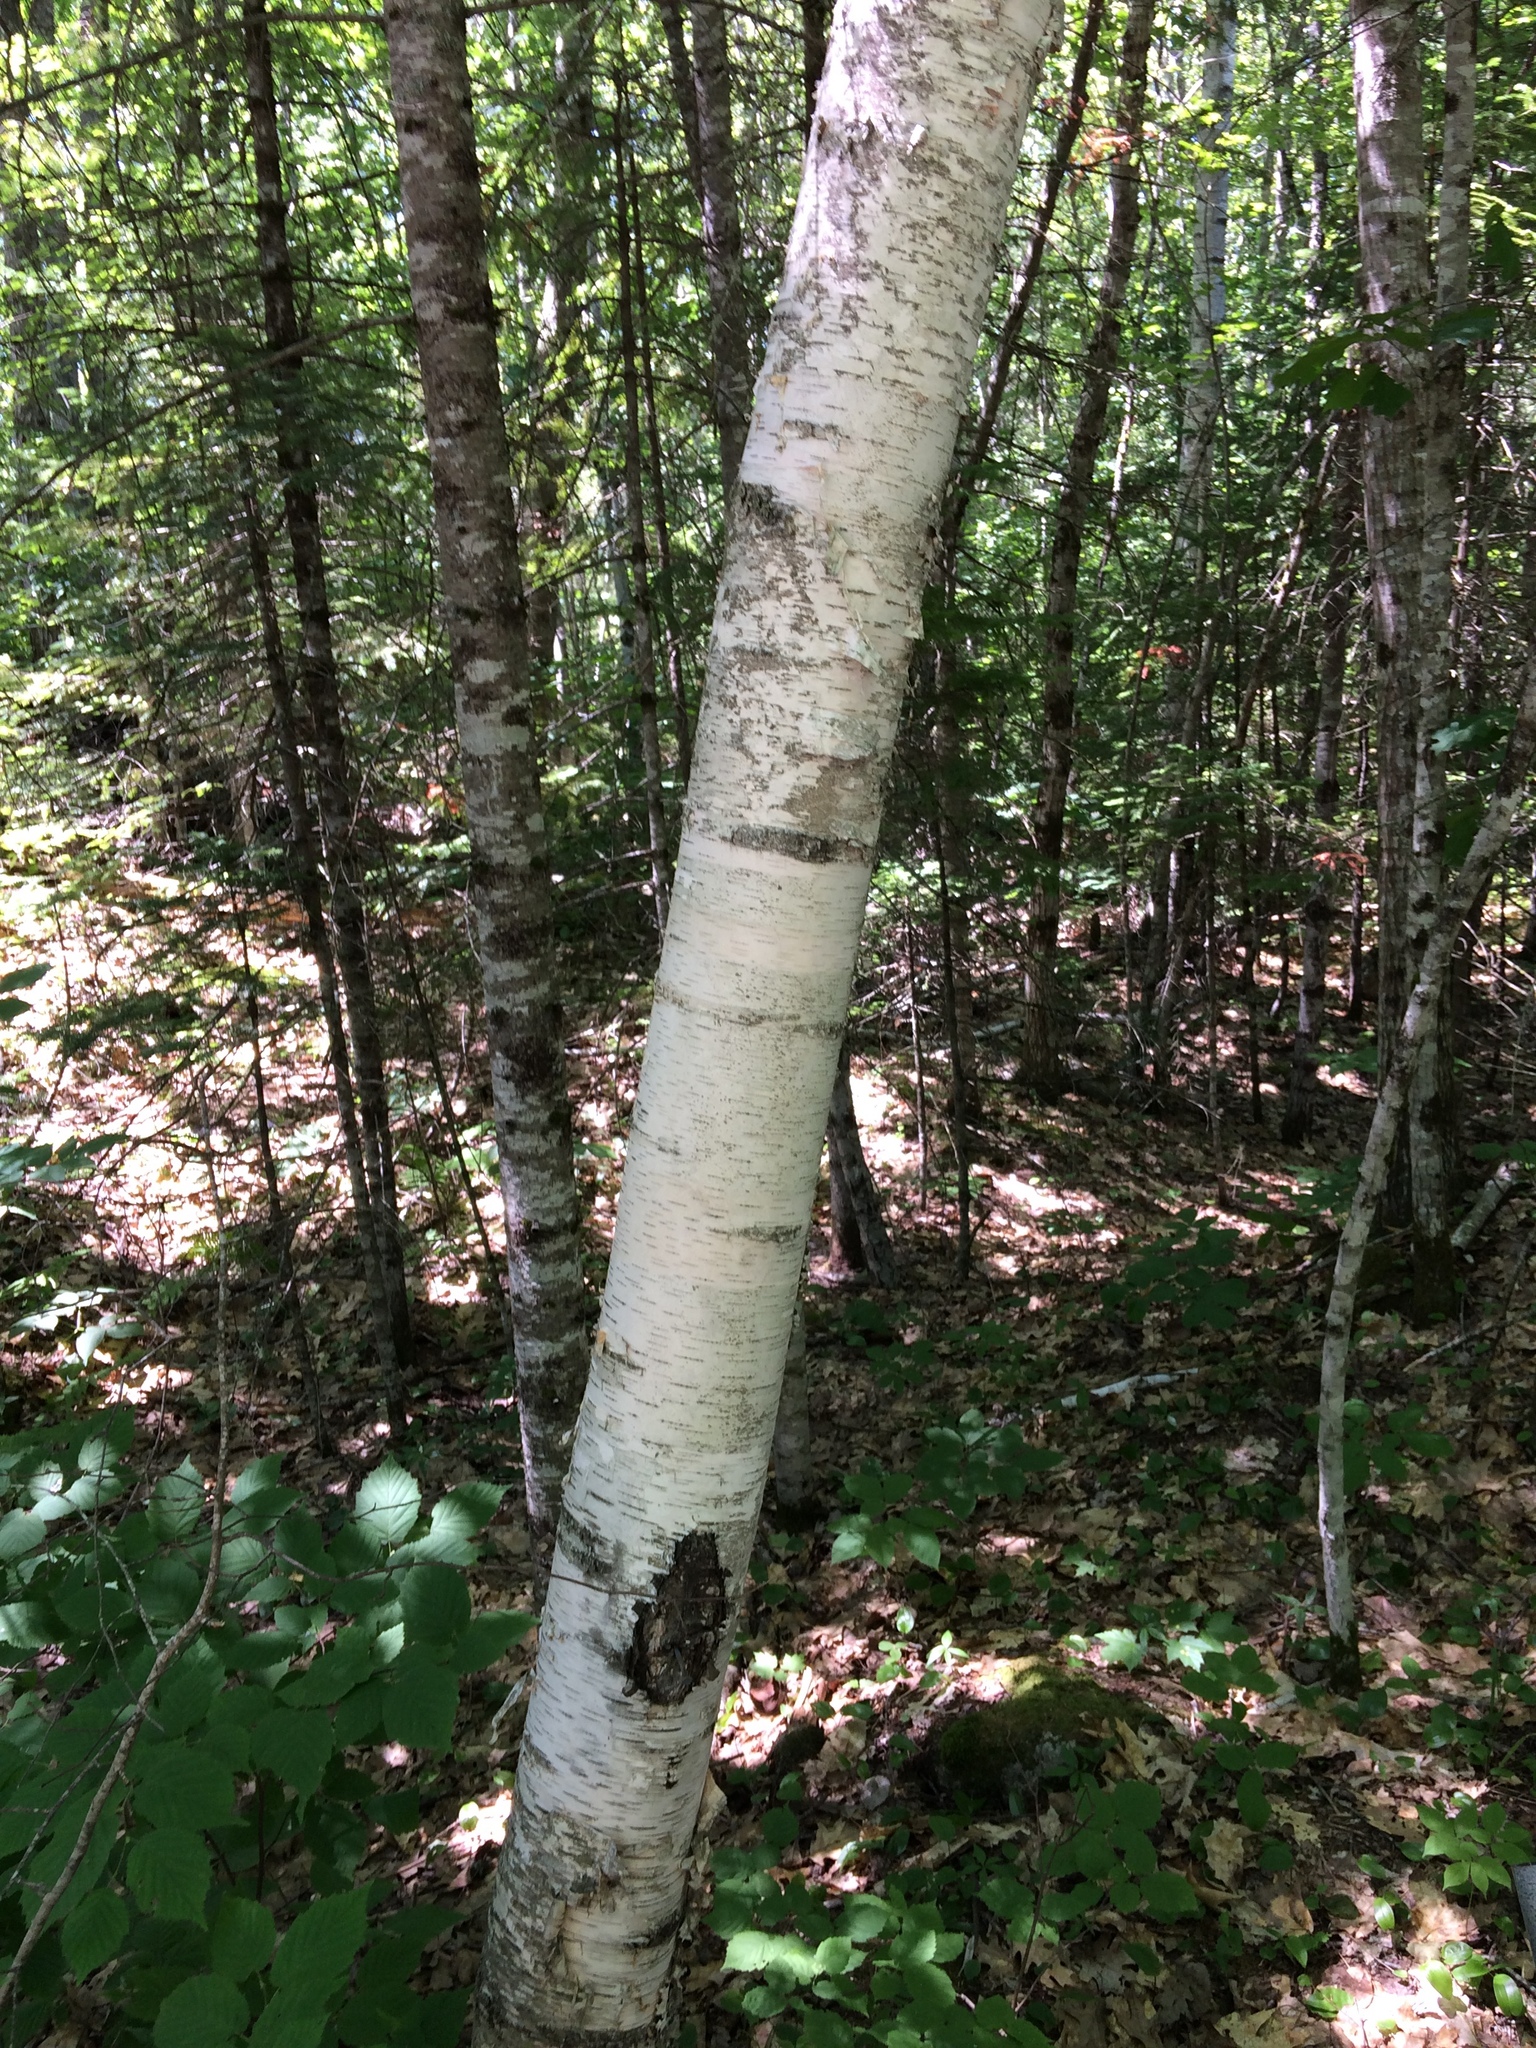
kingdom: Plantae
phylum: Tracheophyta
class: Magnoliopsida
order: Fagales
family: Betulaceae
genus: Betula
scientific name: Betula papyrifera
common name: Paper birch
